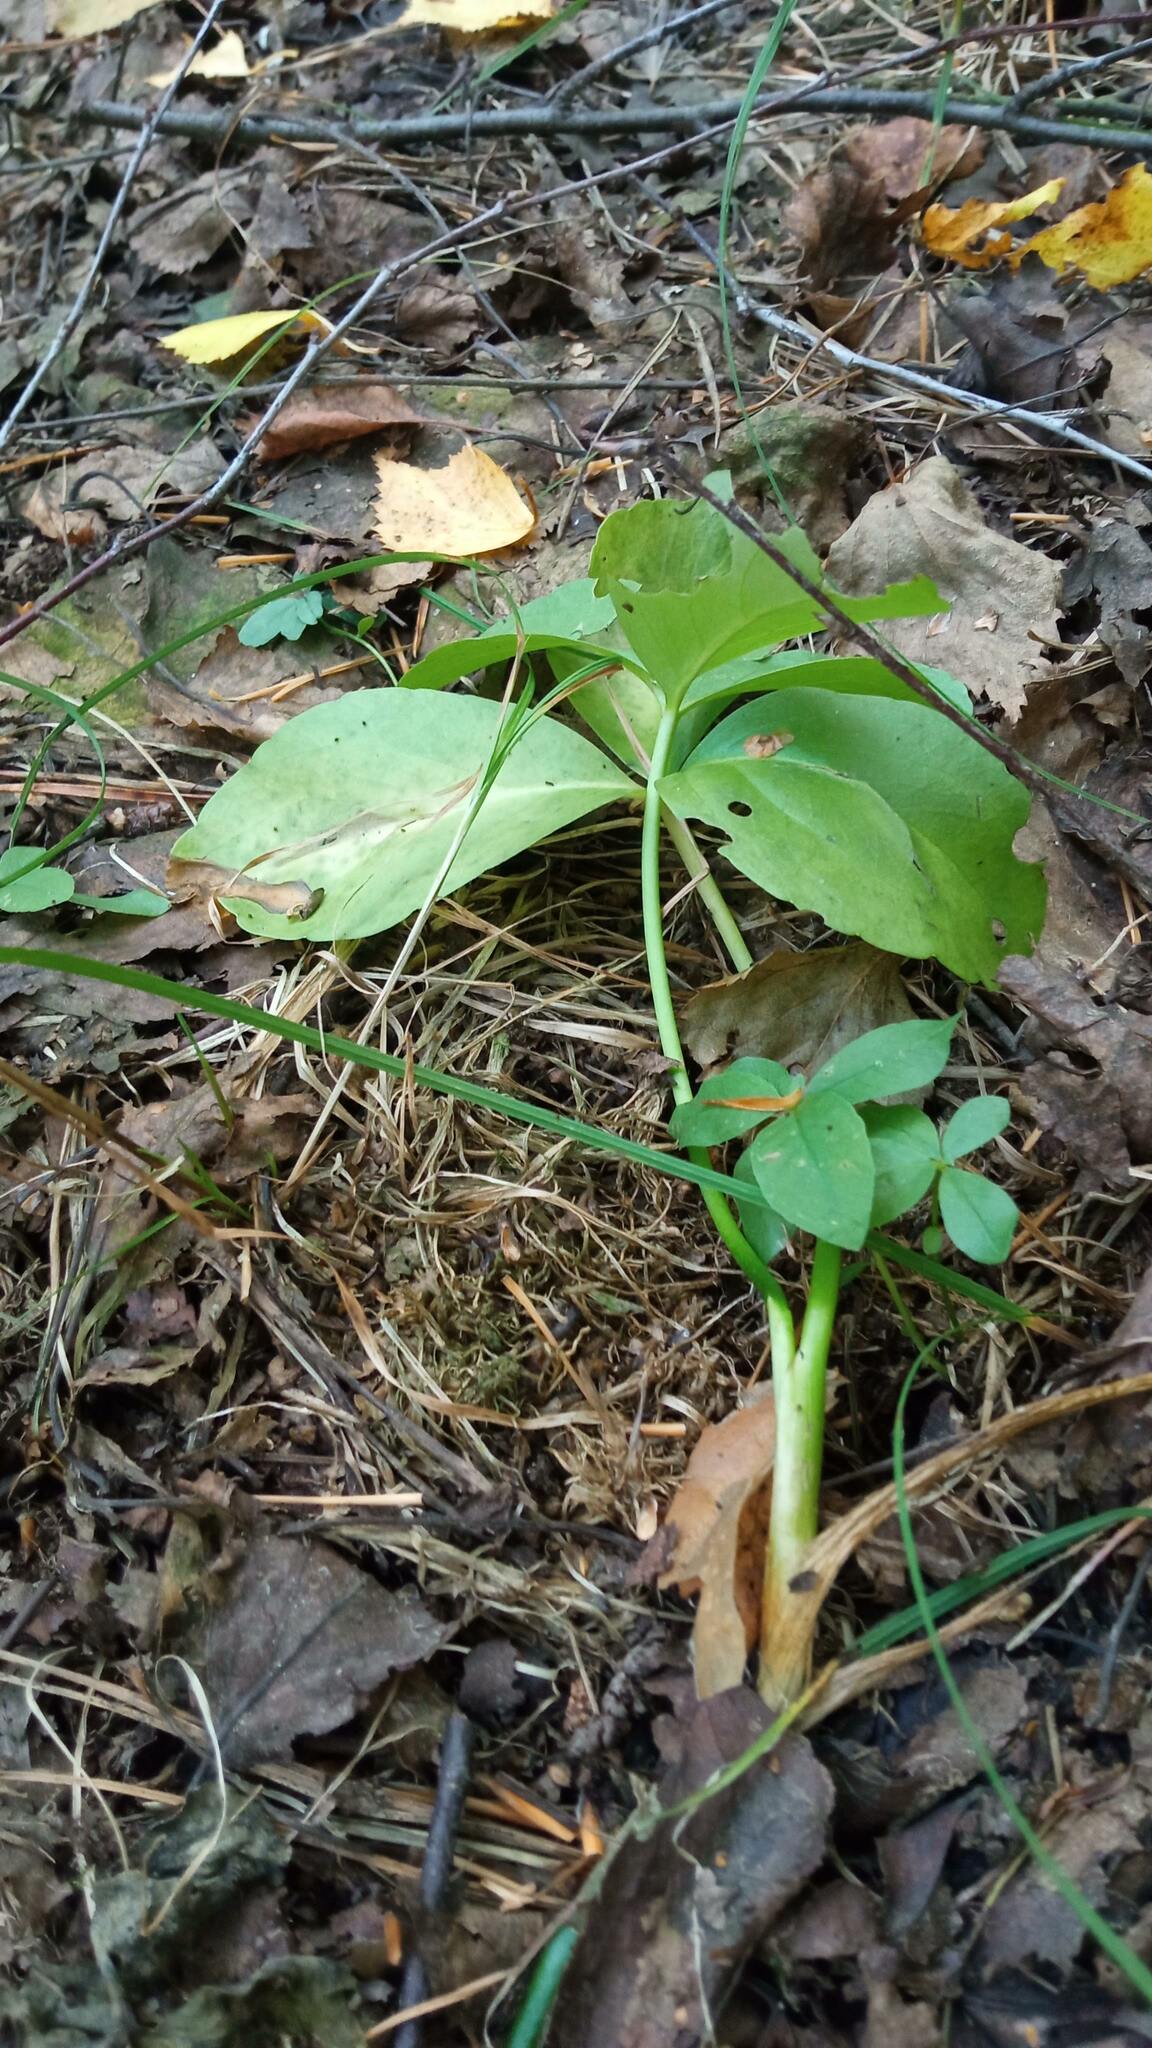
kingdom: Plantae
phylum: Tracheophyta
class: Magnoliopsida
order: Asterales
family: Menyanthaceae
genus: Menyanthes
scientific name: Menyanthes trifoliata
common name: Bogbean
